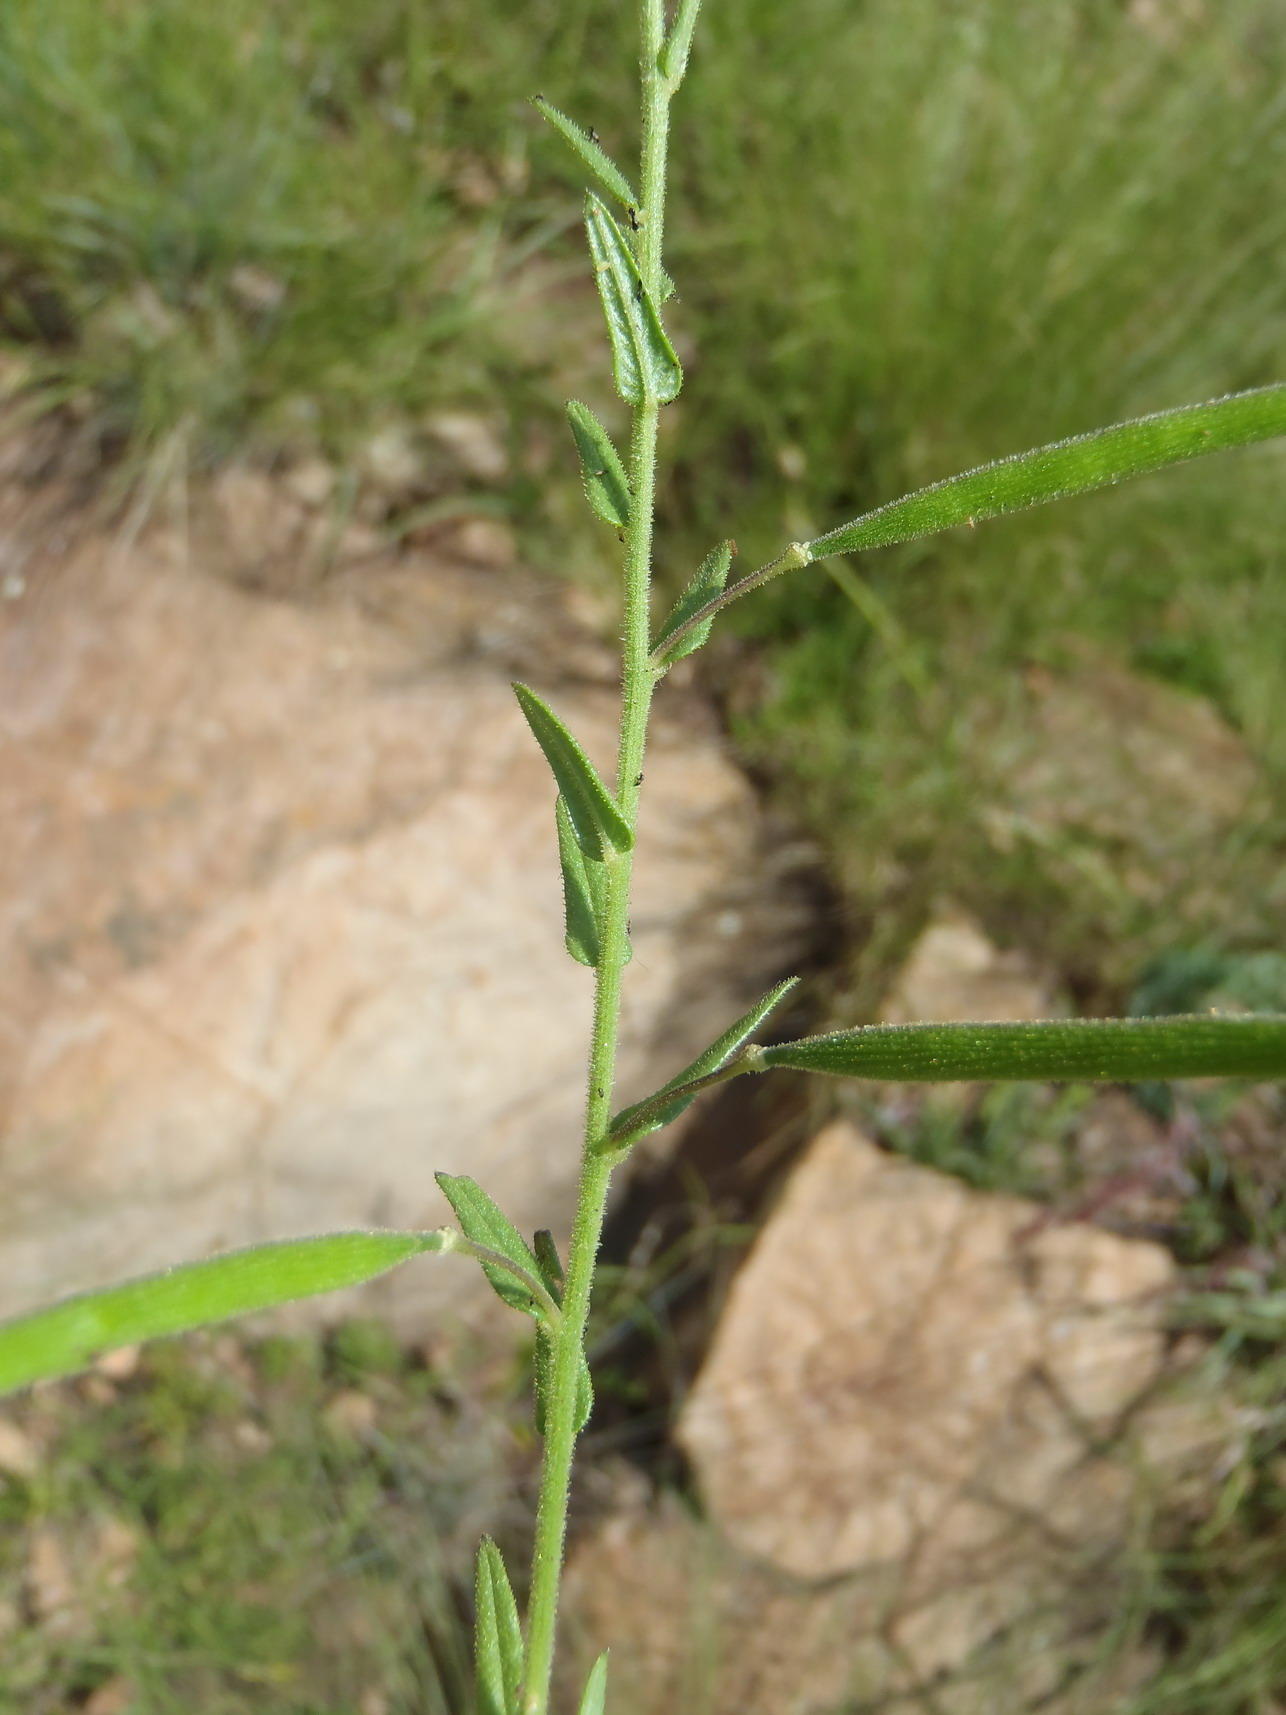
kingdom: Plantae
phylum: Tracheophyta
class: Magnoliopsida
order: Brassicales
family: Cleomaceae
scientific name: Cleomaceae
